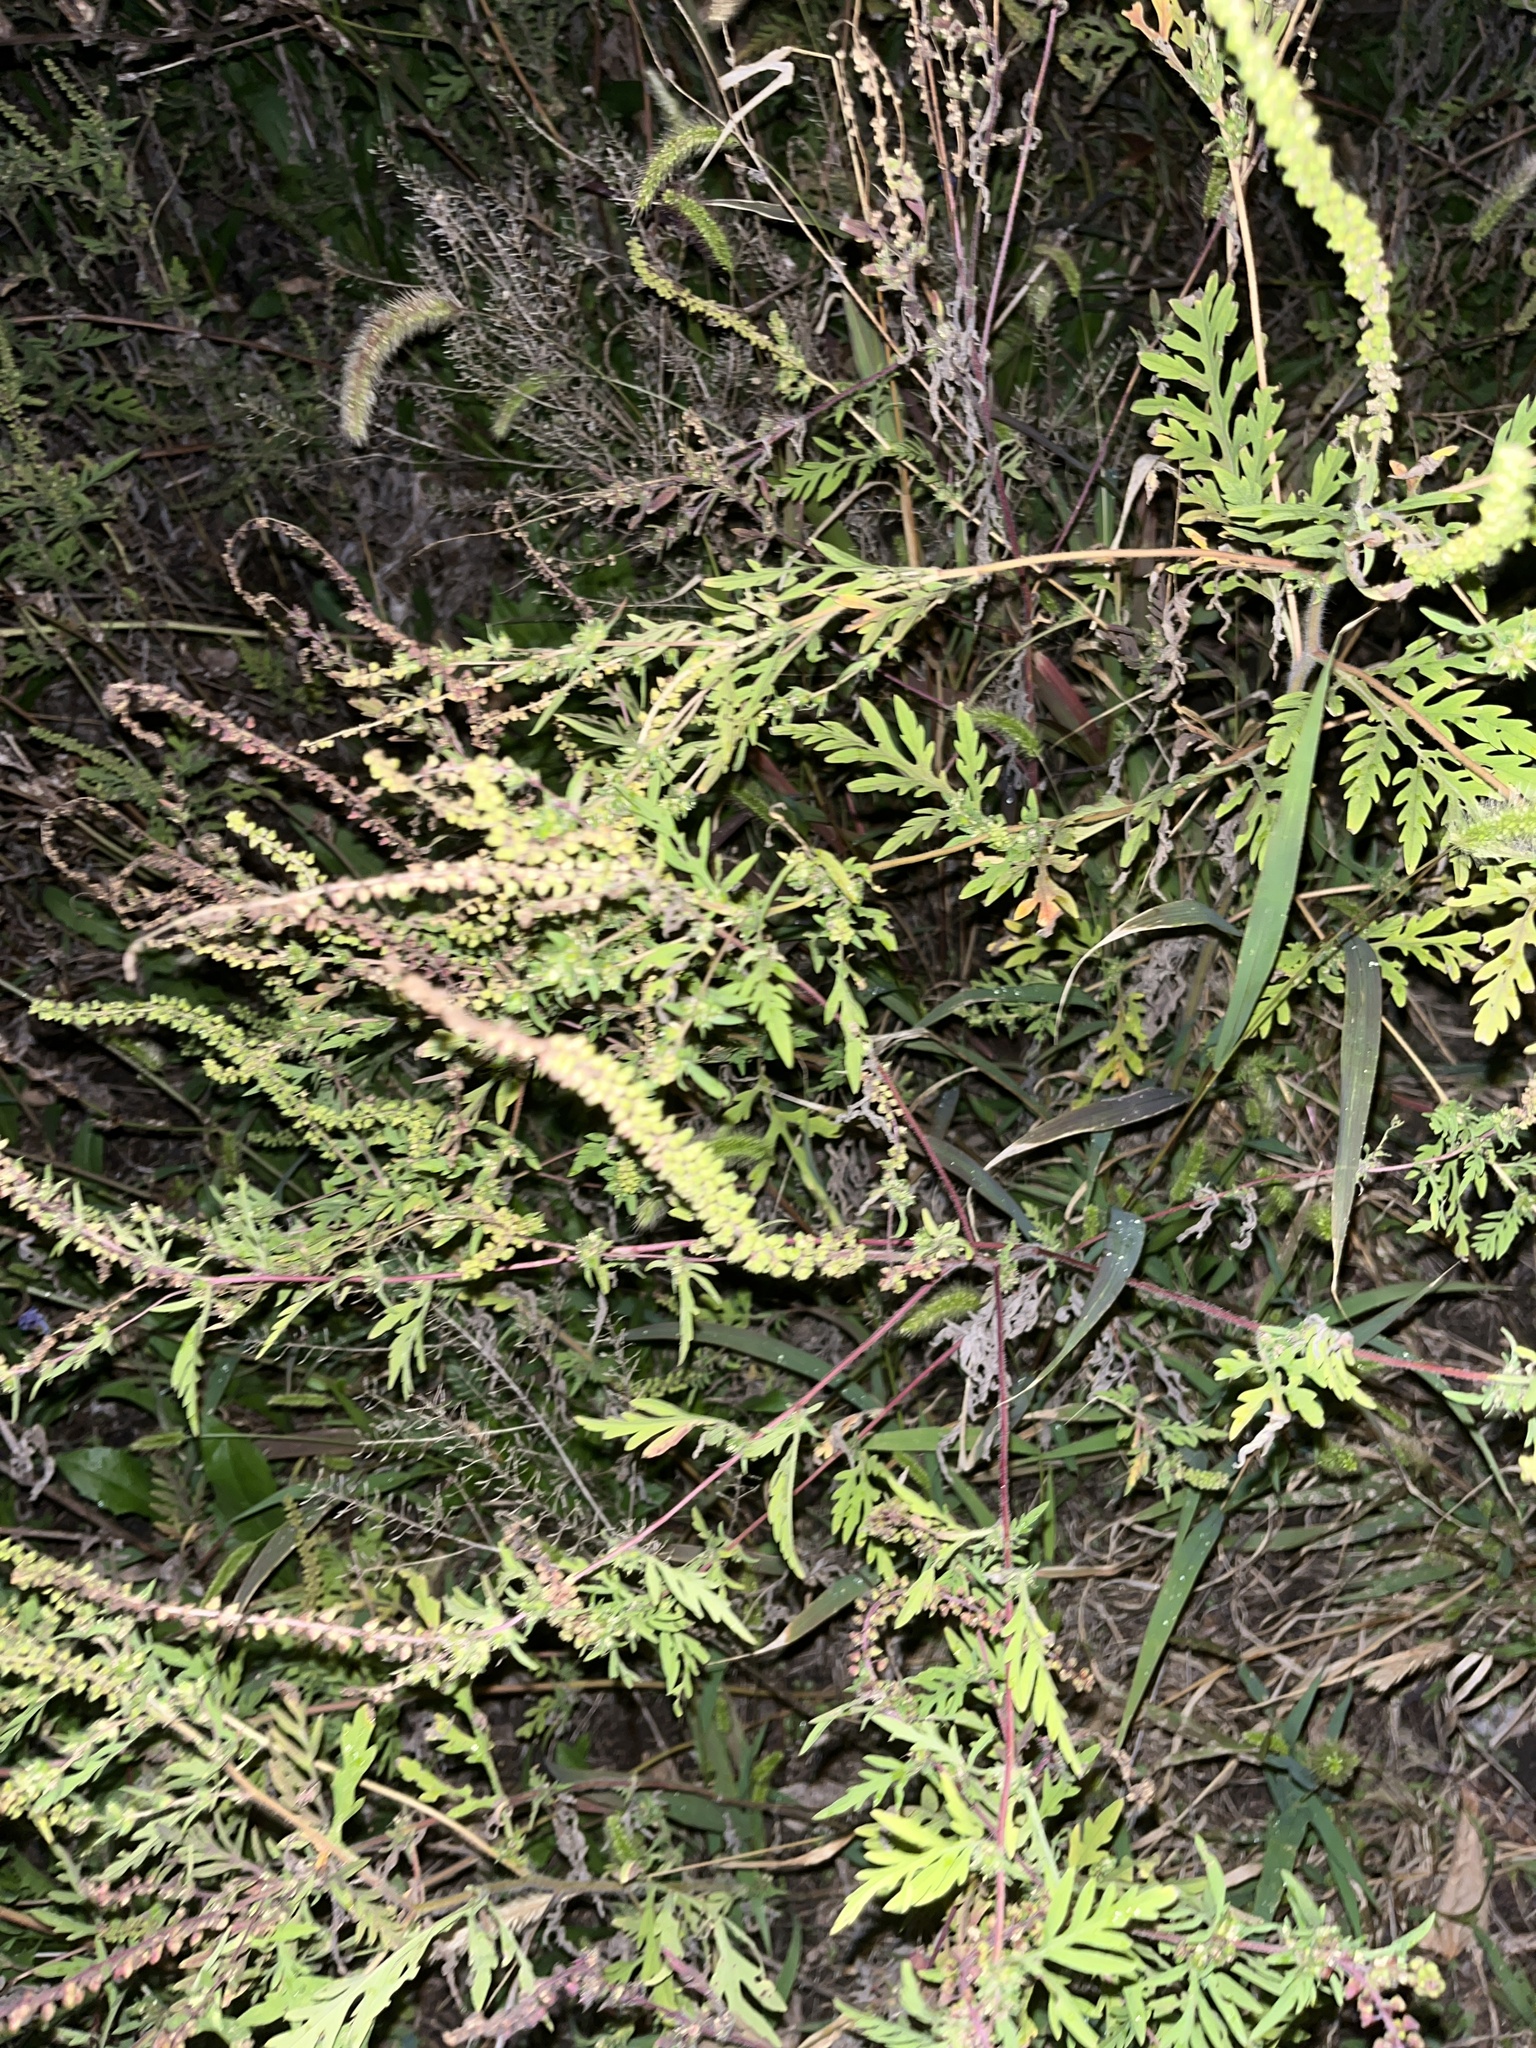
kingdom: Plantae
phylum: Tracheophyta
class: Magnoliopsida
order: Asterales
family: Asteraceae
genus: Ambrosia
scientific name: Ambrosia artemisiifolia
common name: Annual ragweed
